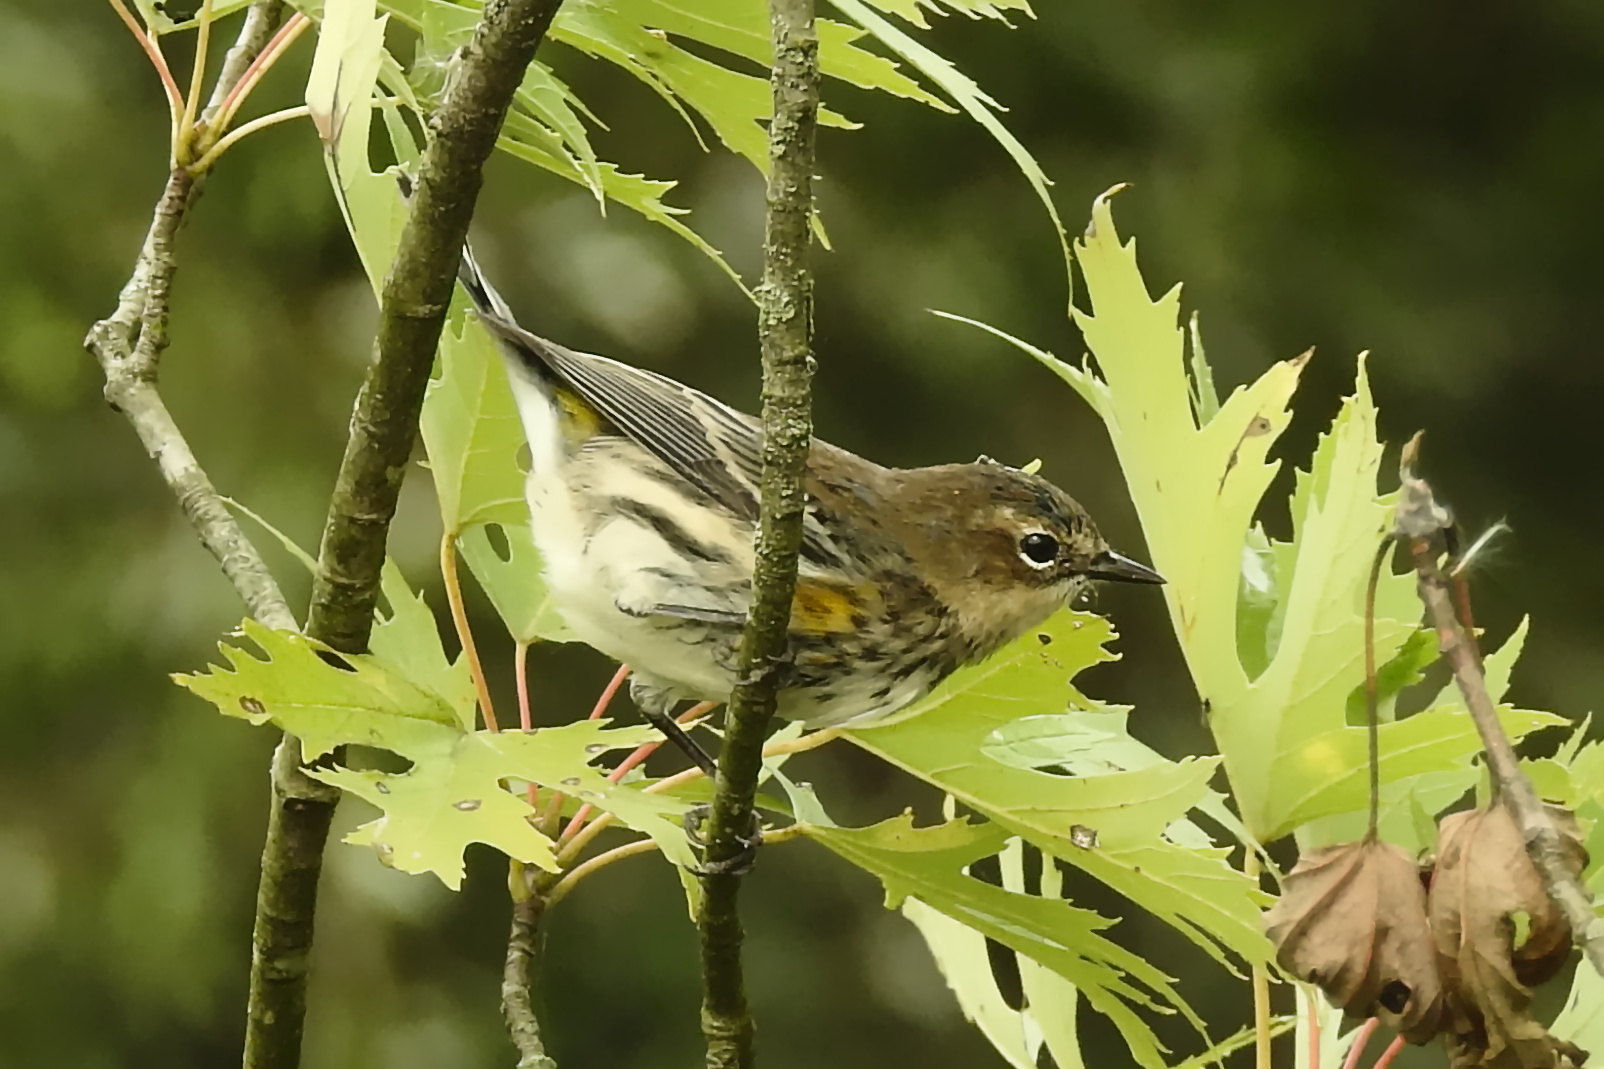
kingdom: Animalia
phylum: Chordata
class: Aves
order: Passeriformes
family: Parulidae
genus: Setophaga
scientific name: Setophaga coronata
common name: Myrtle warbler
